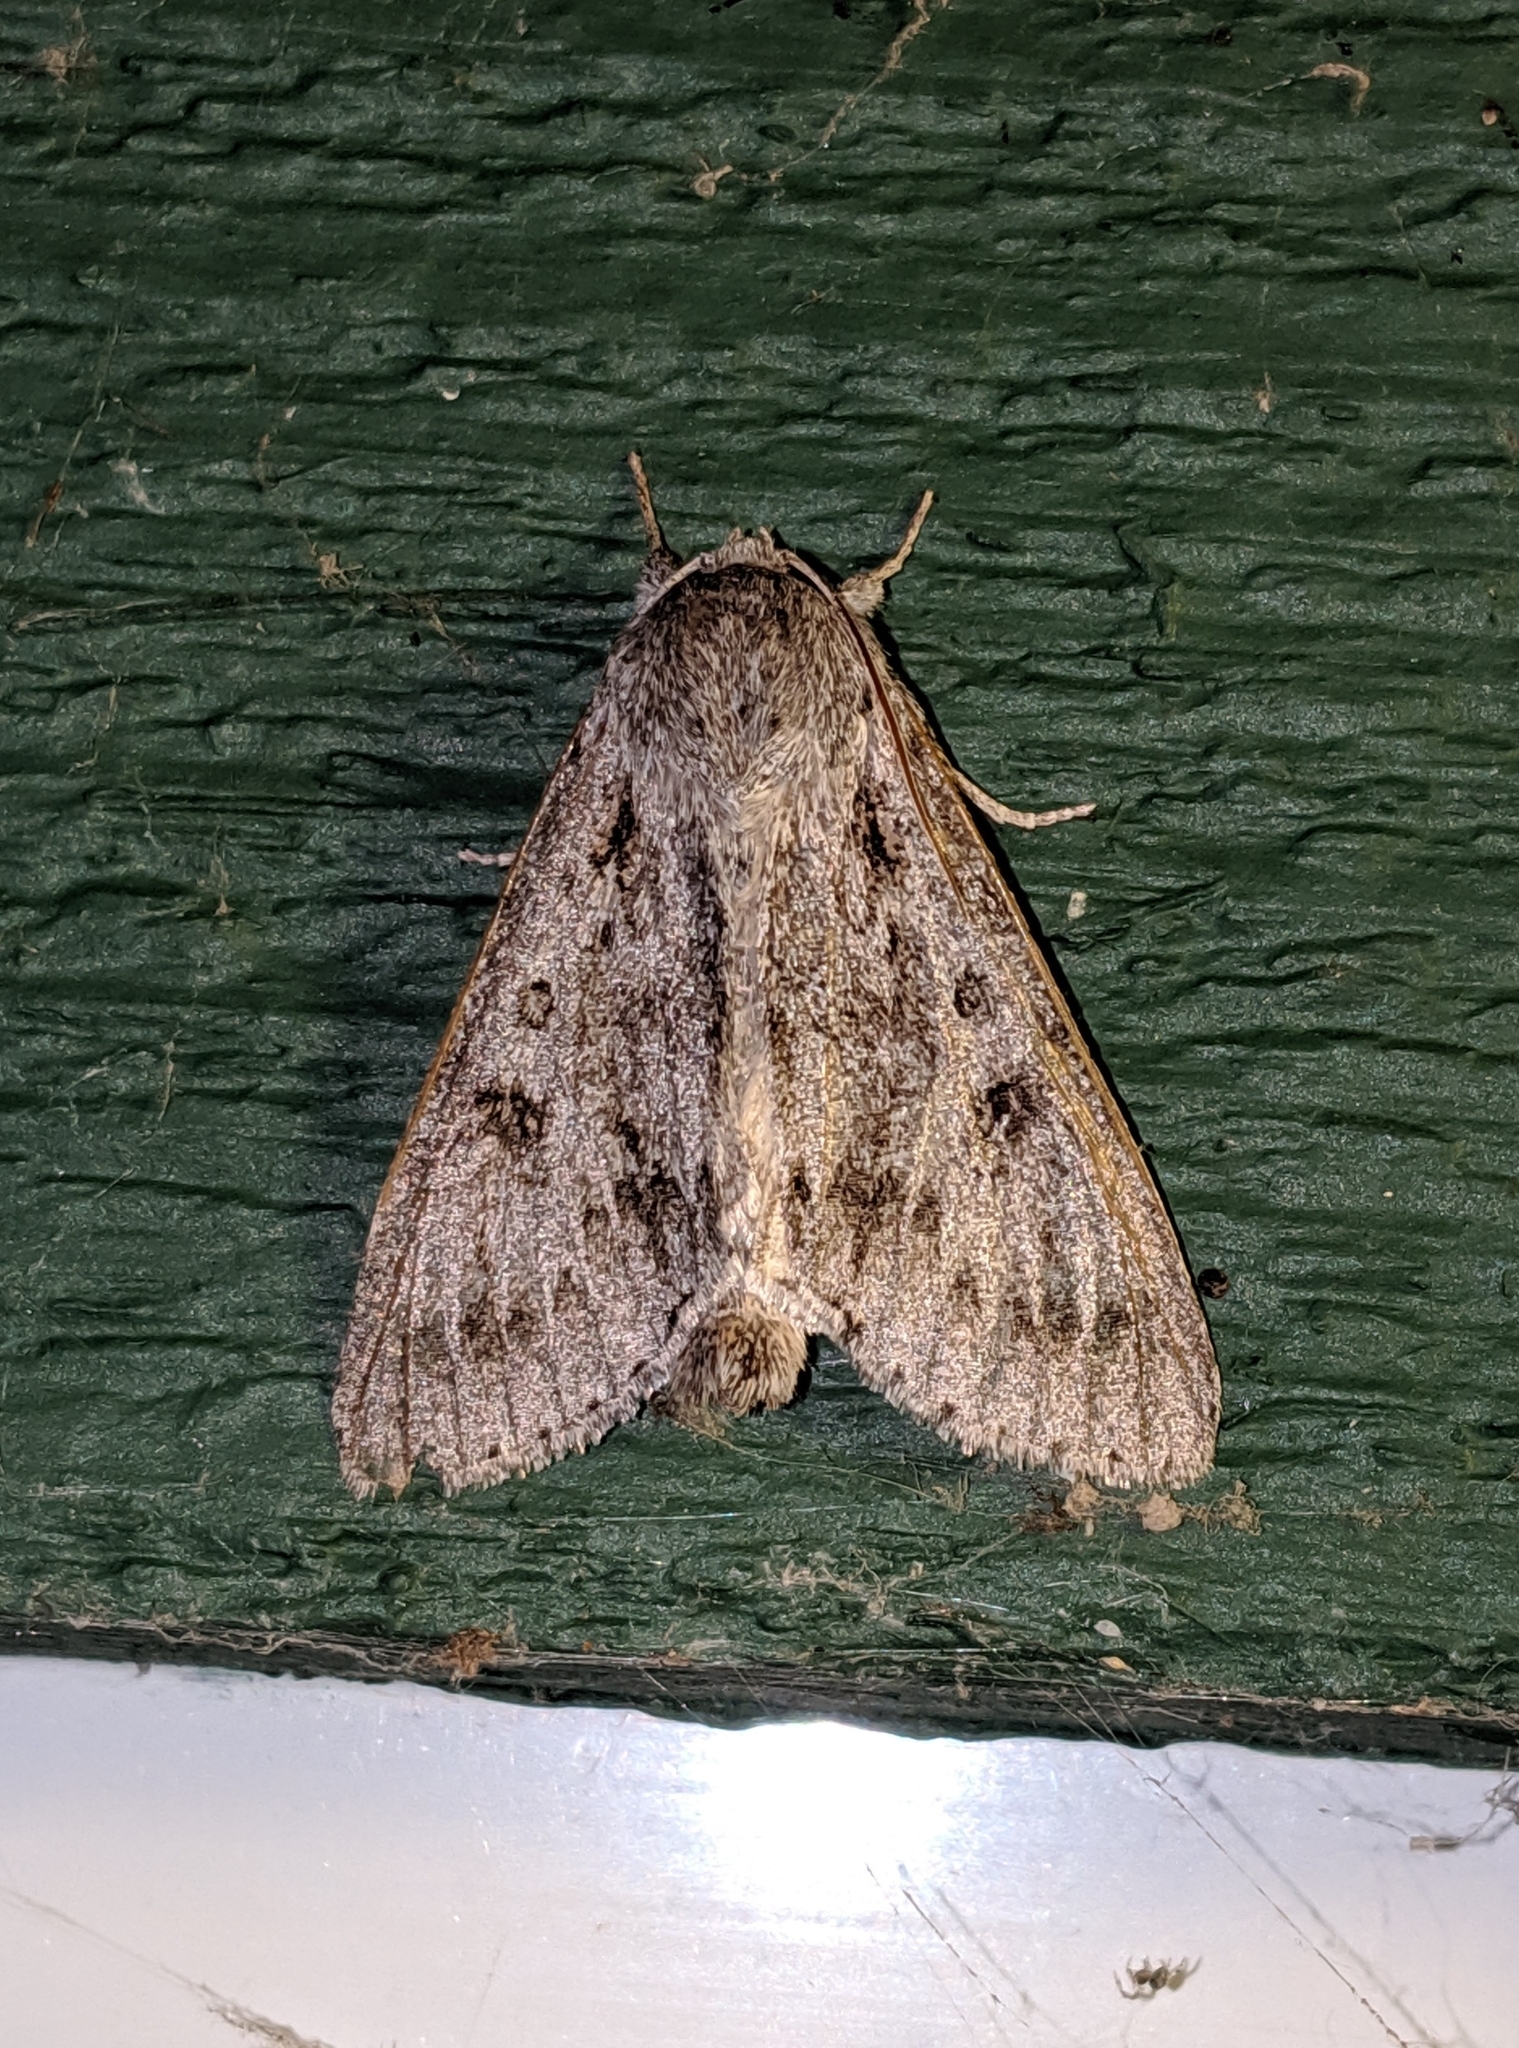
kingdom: Animalia
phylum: Arthropoda
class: Insecta
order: Lepidoptera
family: Noctuidae
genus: Acronicta
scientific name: Acronicta insita
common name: Large gray dagger
